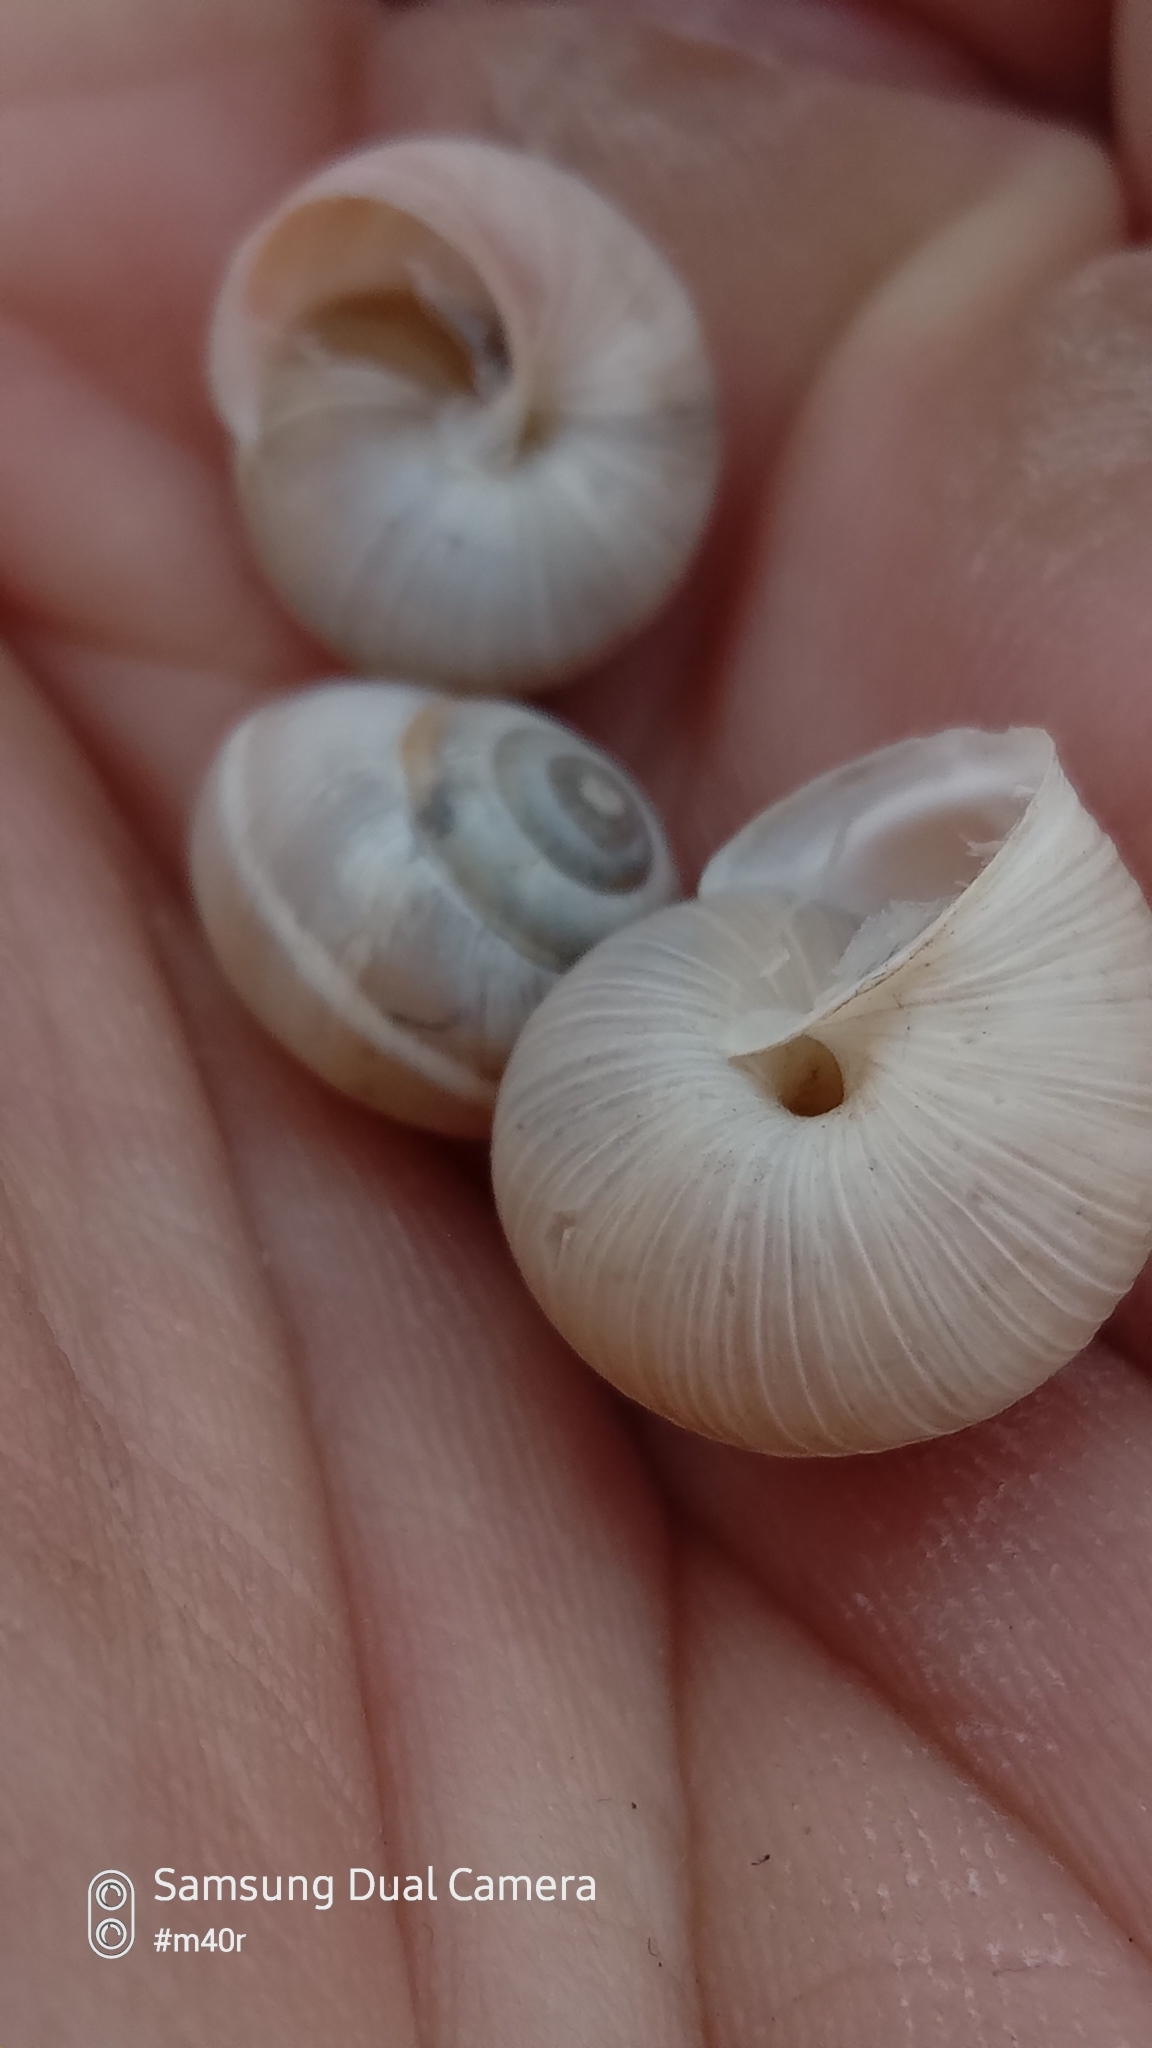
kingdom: Animalia
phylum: Mollusca
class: Gastropoda
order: Stylommatophora
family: Hygromiidae
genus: Harmozica
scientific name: Harmozica ravergiensis
